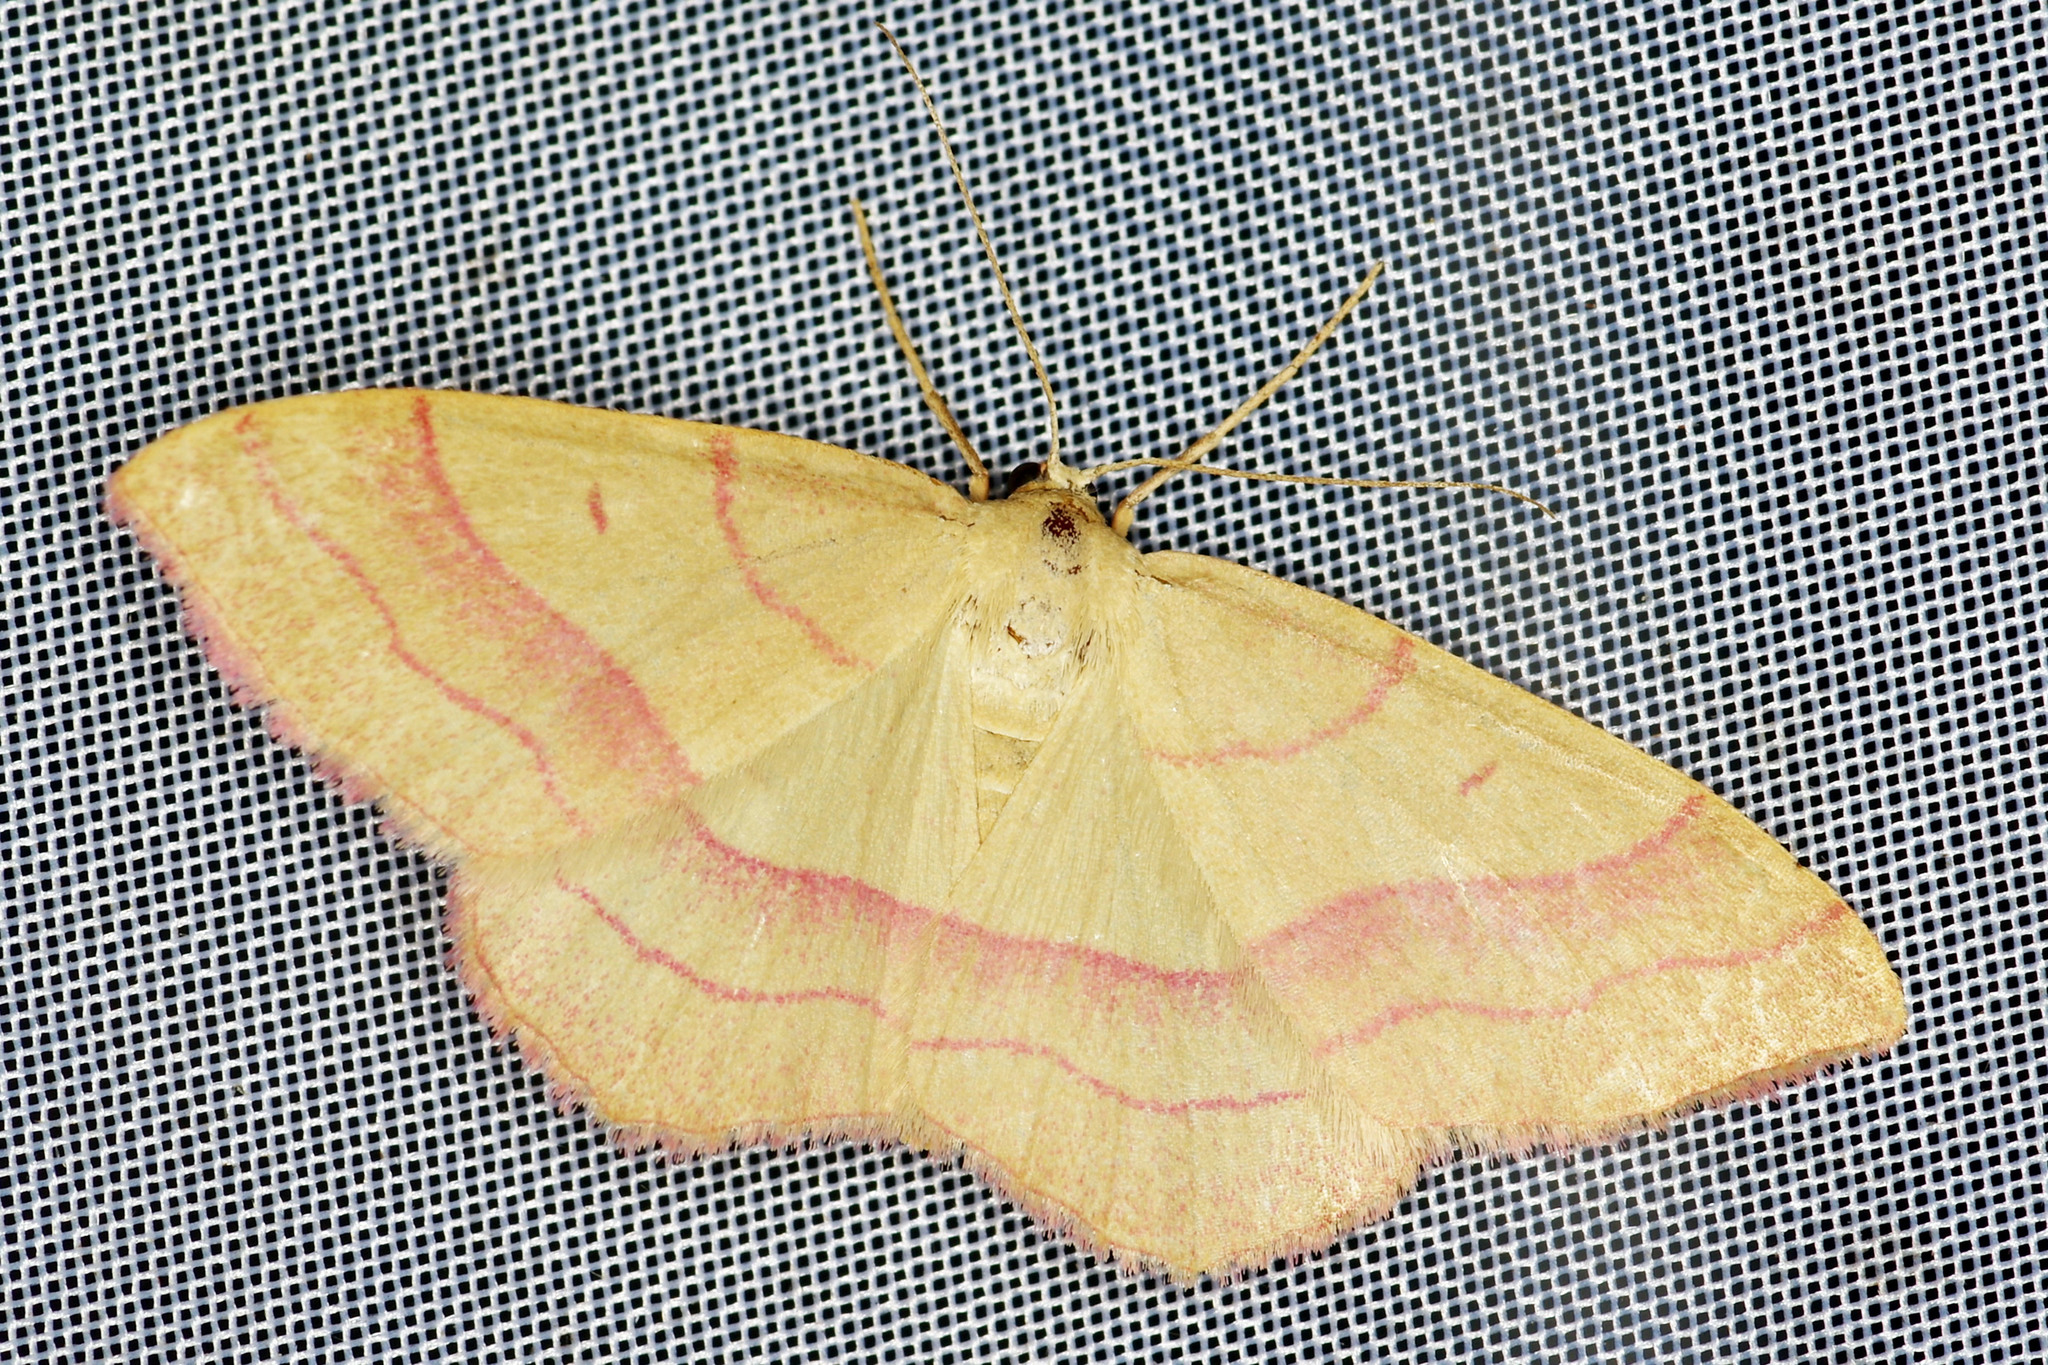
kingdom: Animalia
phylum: Arthropoda
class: Insecta
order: Lepidoptera
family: Geometridae
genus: Rhodostrophia
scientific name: Rhodostrophia vibicaria
